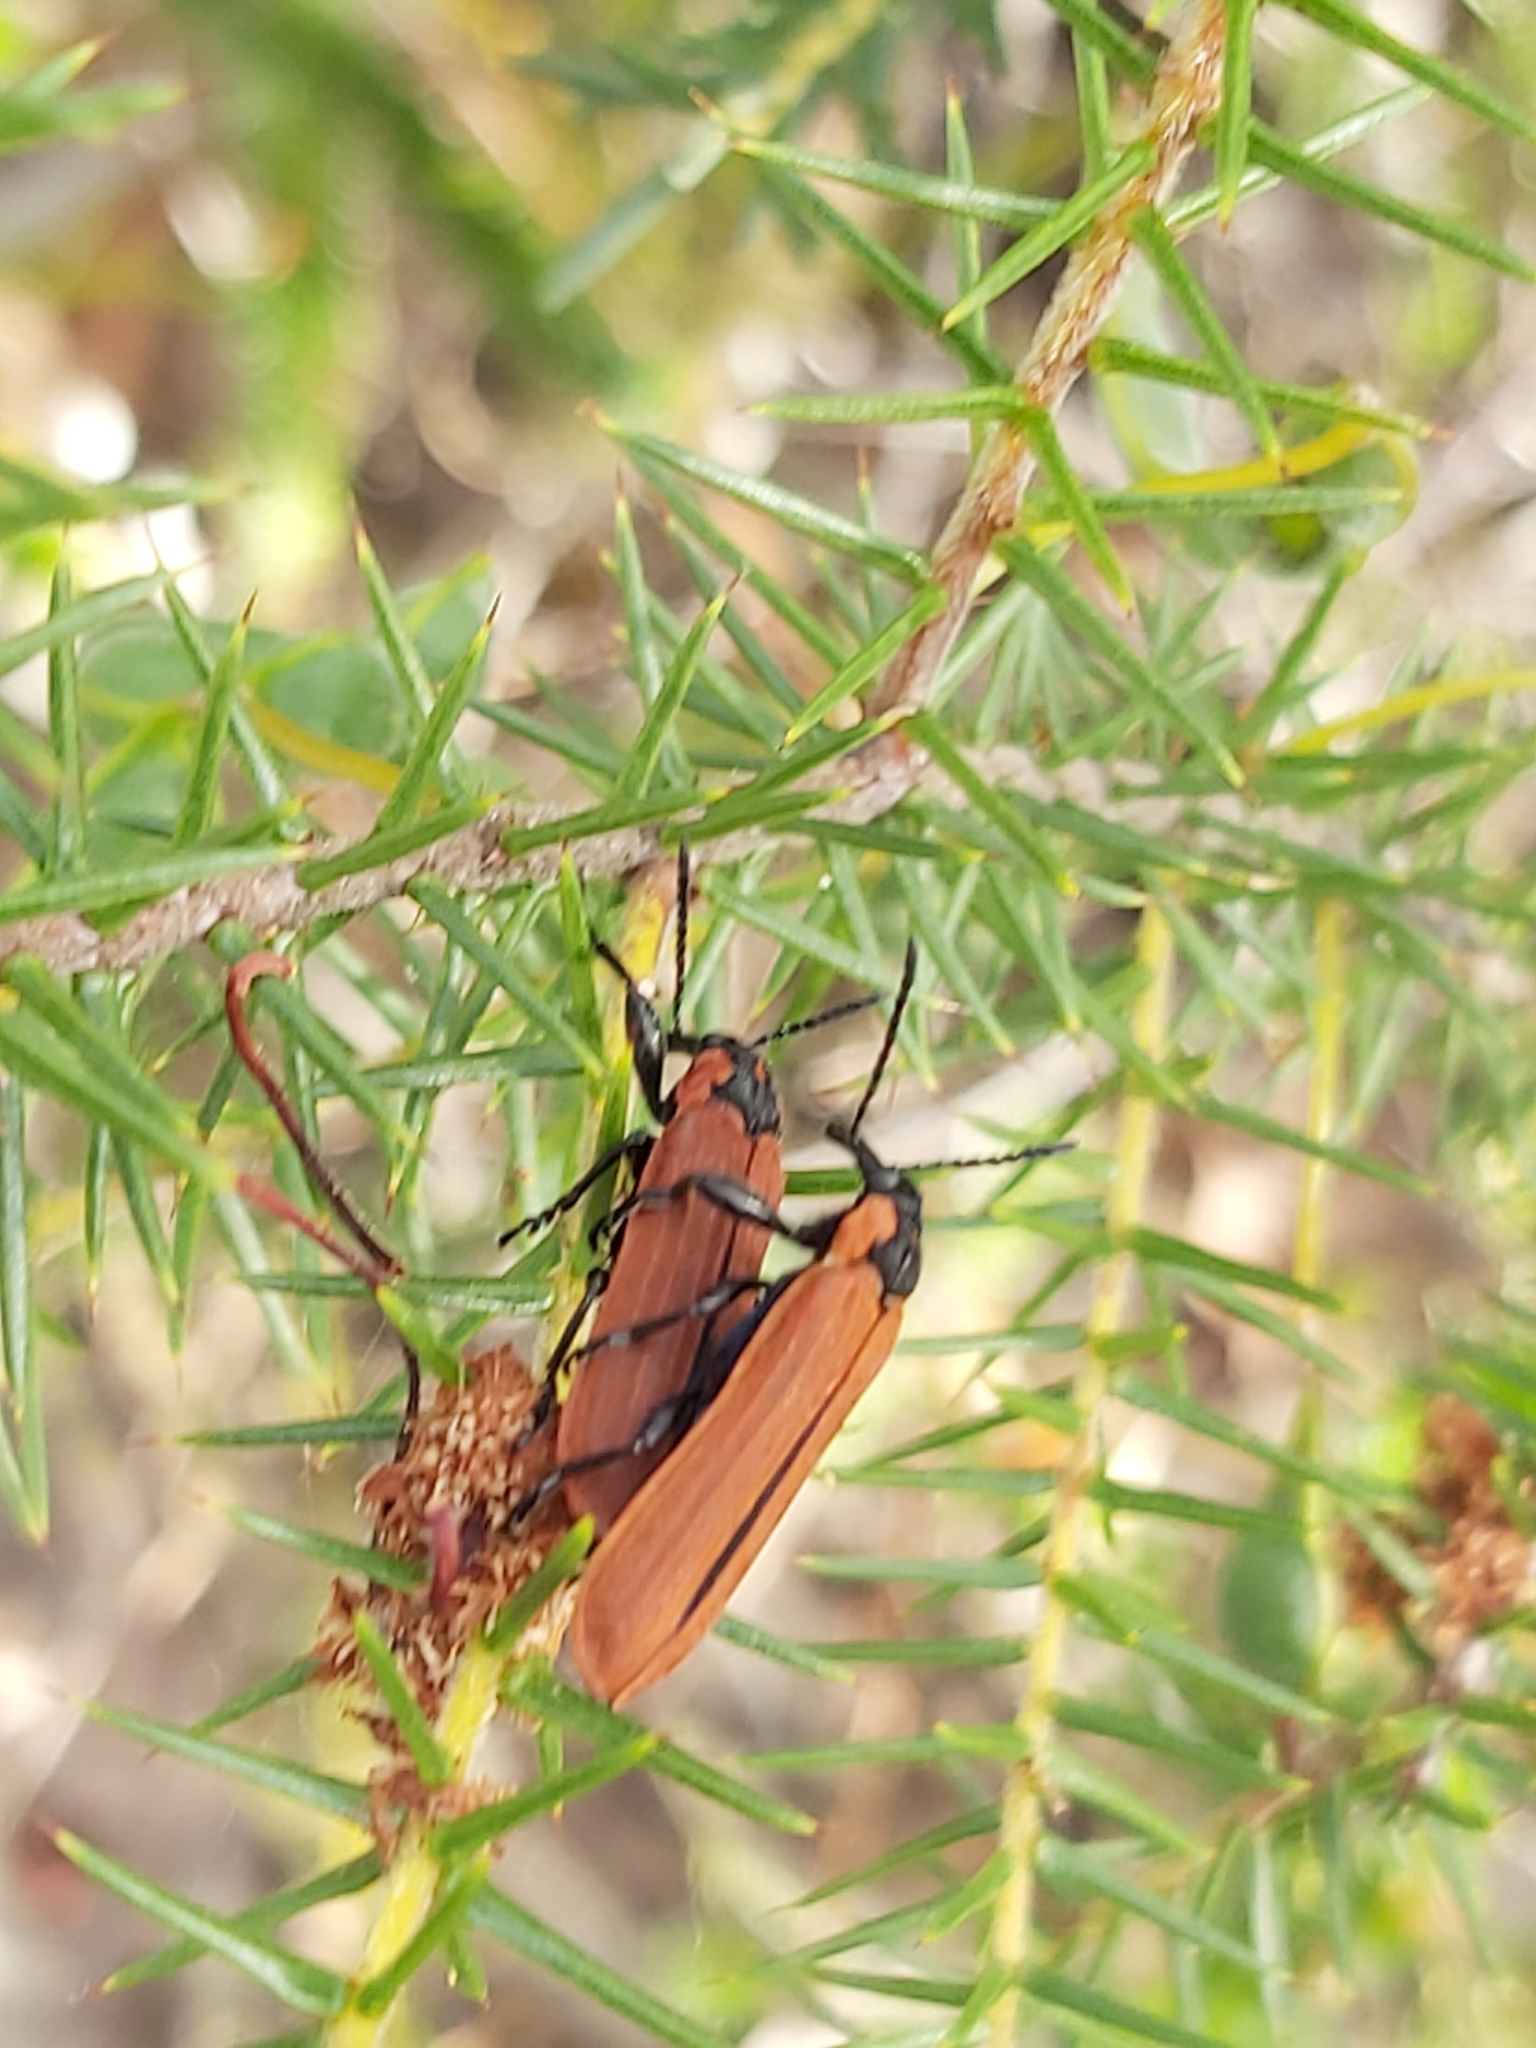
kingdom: Animalia
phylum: Arthropoda
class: Insecta
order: Coleoptera
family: Belidae
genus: Rhinotia
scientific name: Rhinotia haemoptera
